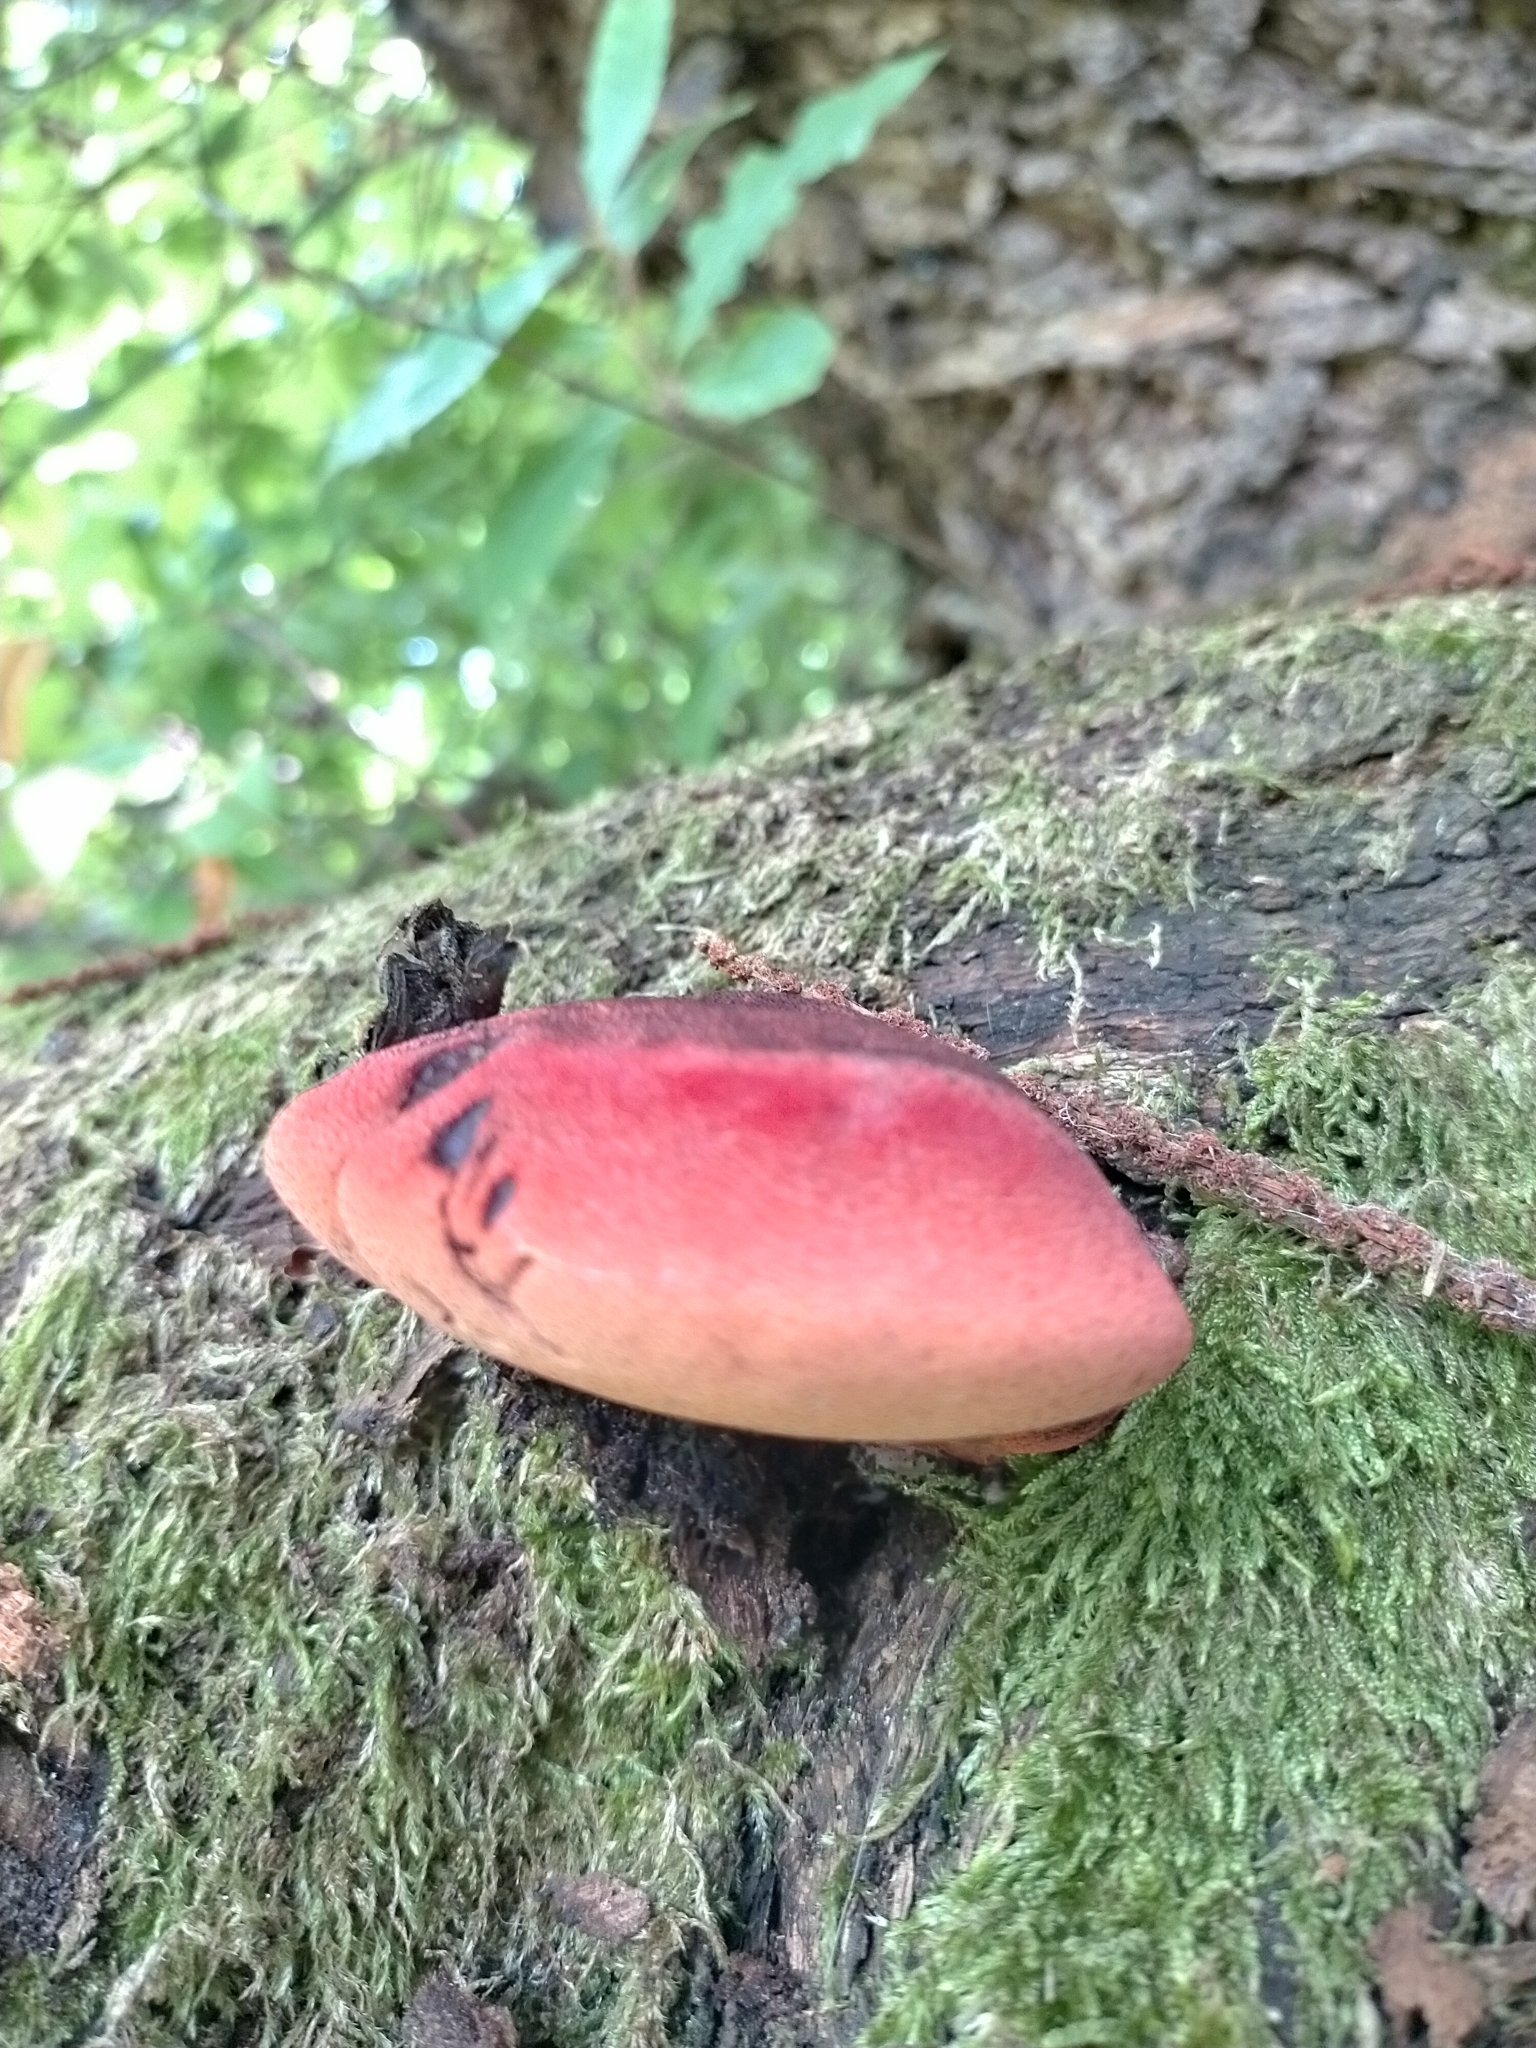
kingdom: Fungi
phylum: Basidiomycota
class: Agaricomycetes
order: Agaricales
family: Fistulinaceae
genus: Fistulina
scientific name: Fistulina hepatica
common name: Beef-steak fungus
